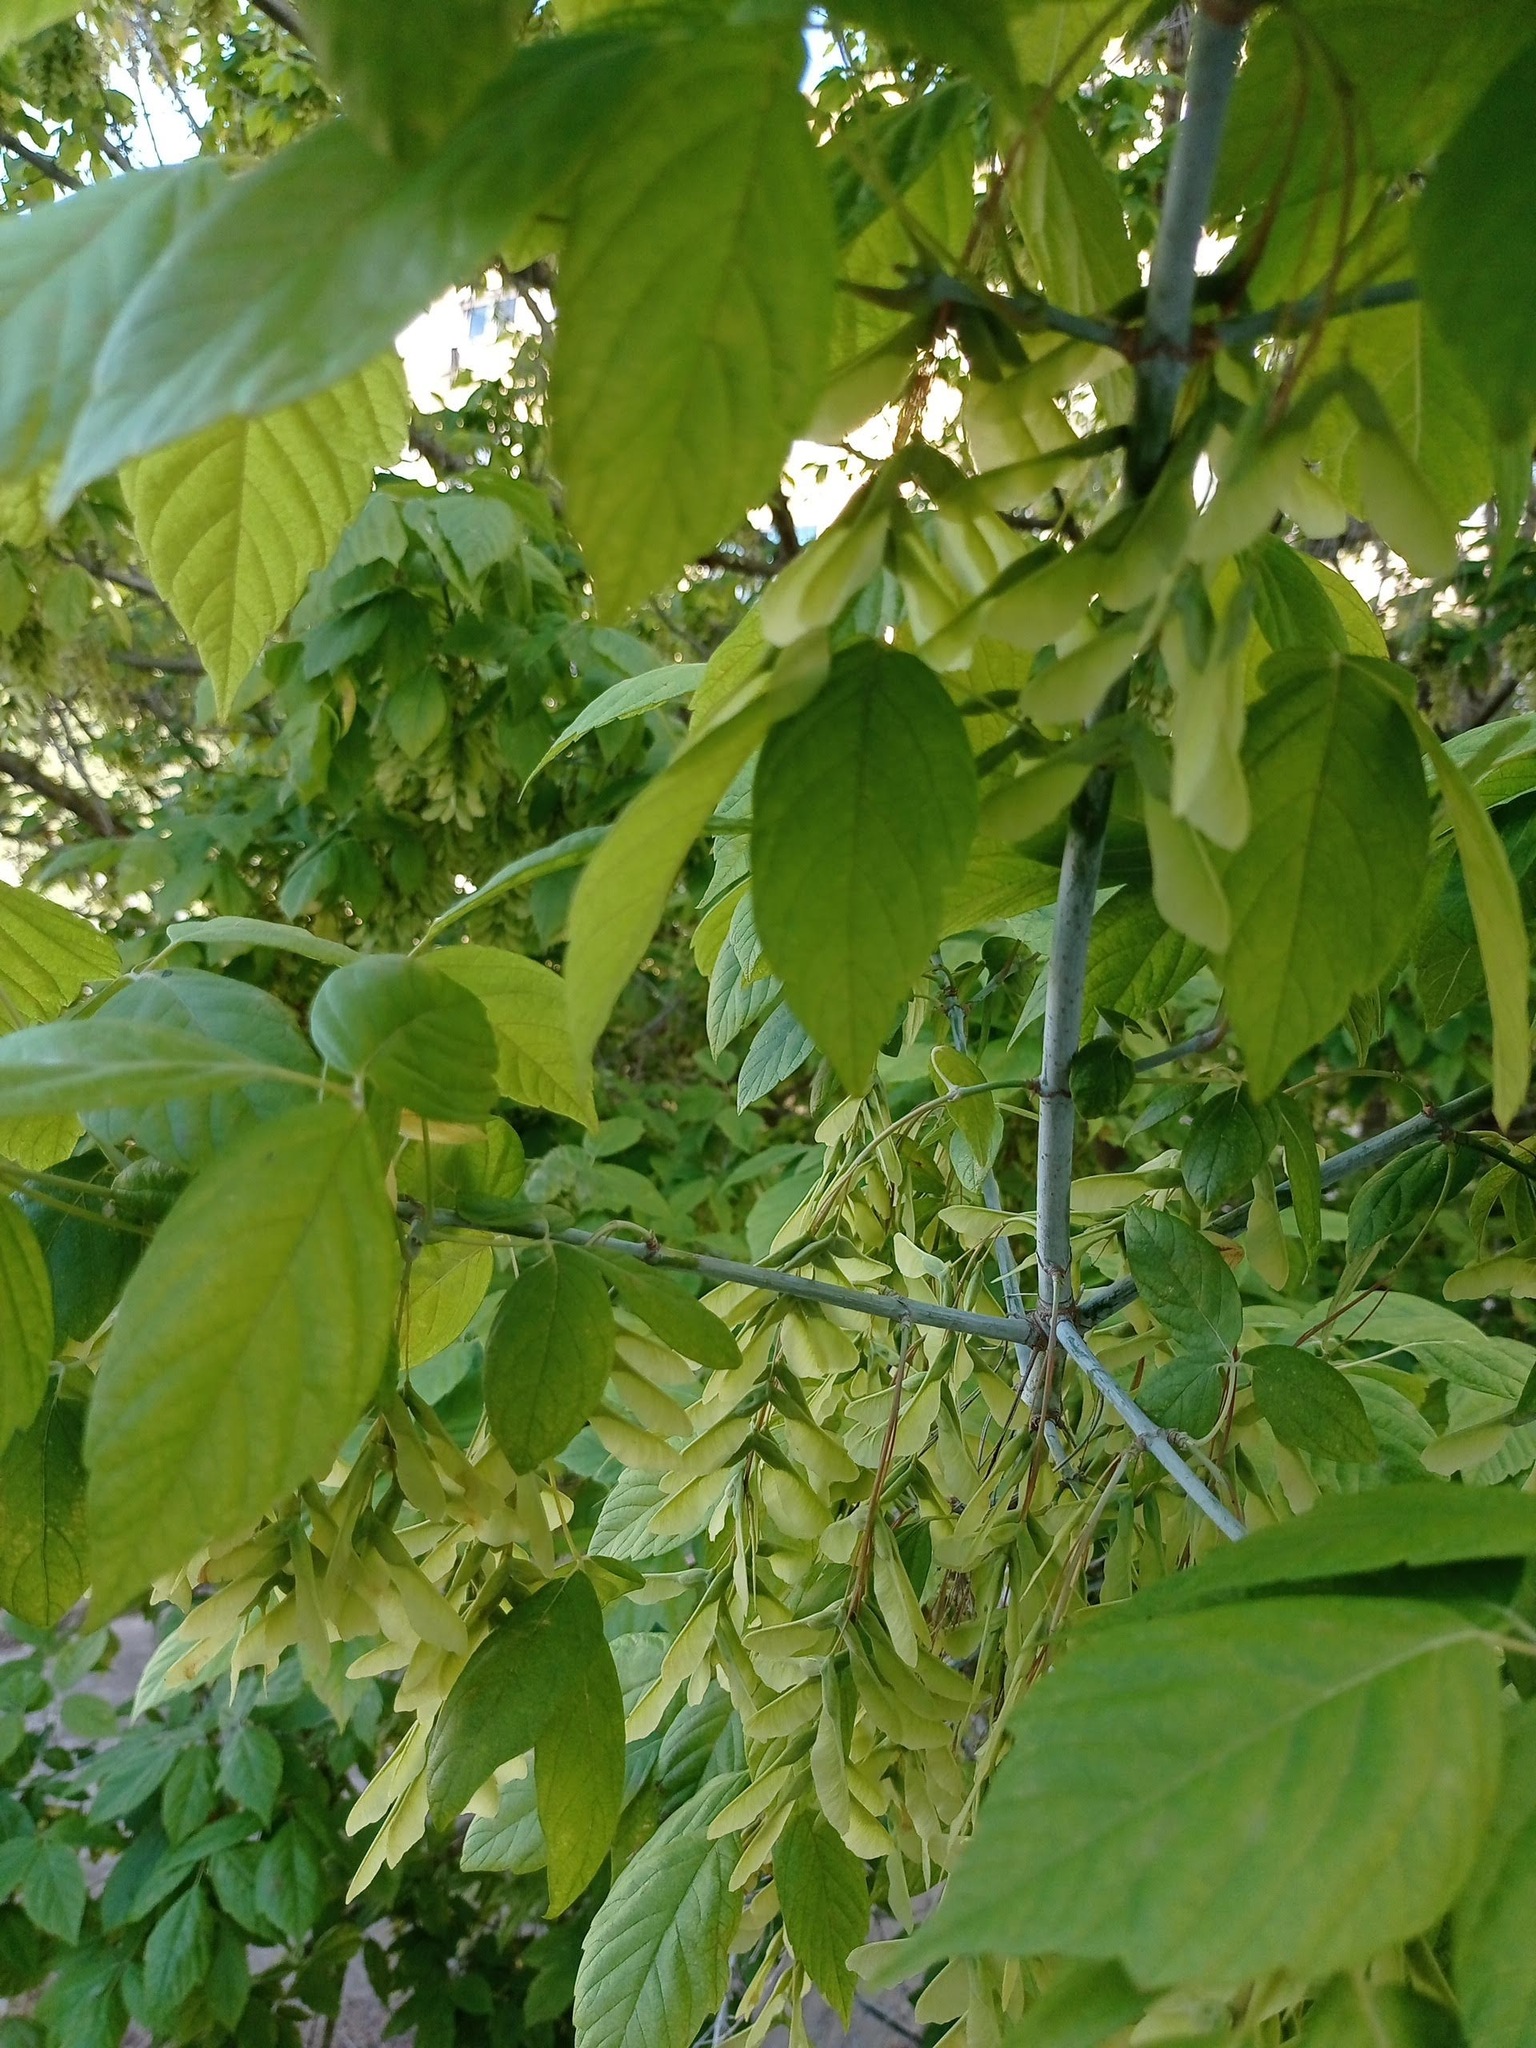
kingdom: Plantae
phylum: Tracheophyta
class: Magnoliopsida
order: Sapindales
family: Sapindaceae
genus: Acer
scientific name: Acer negundo
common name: Ashleaf maple
